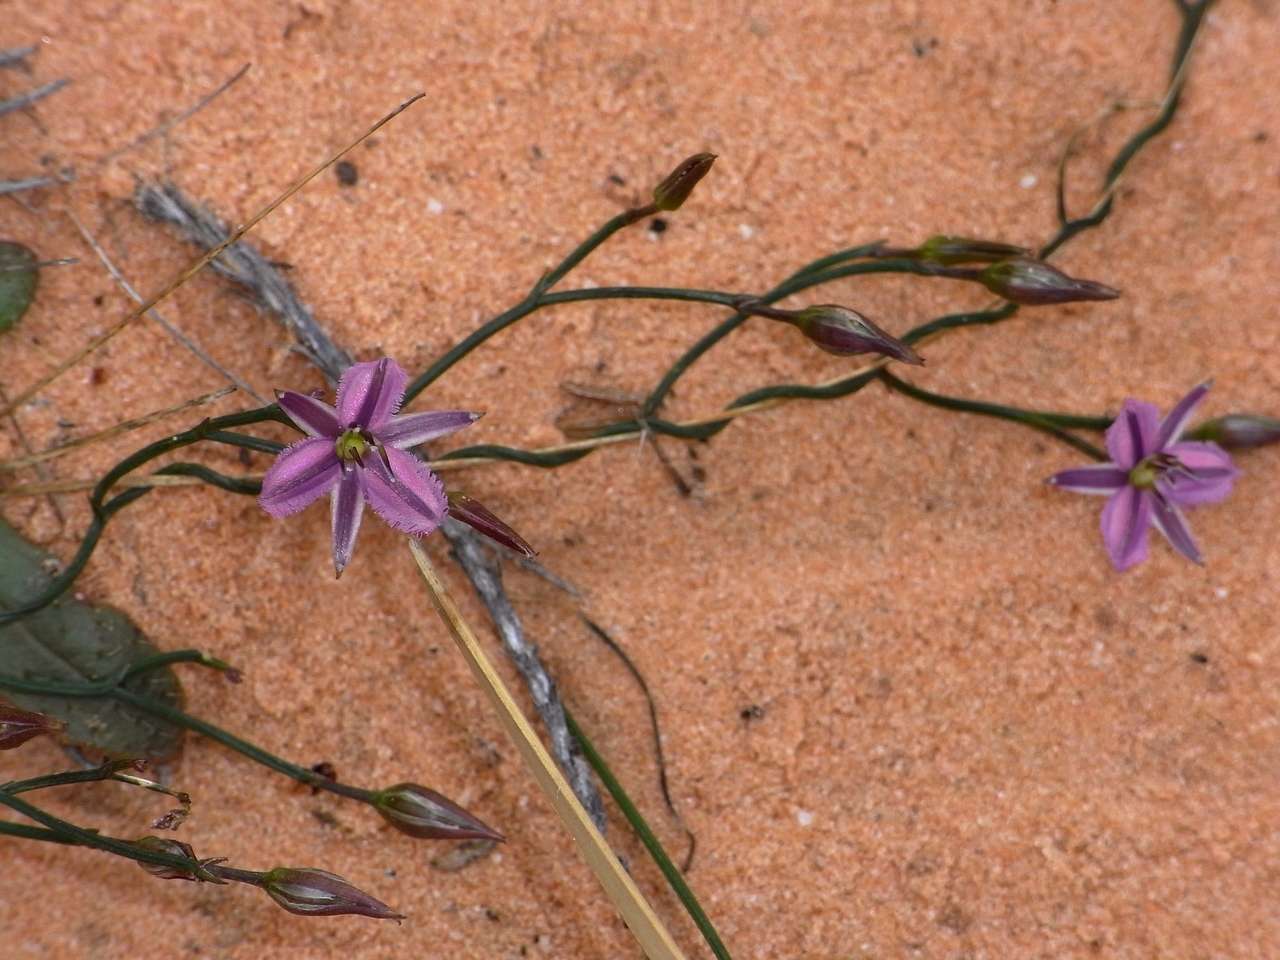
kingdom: Plantae
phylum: Tracheophyta
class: Liliopsida
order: Asparagales
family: Asparagaceae
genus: Thysanotus
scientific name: Thysanotus patersonii
